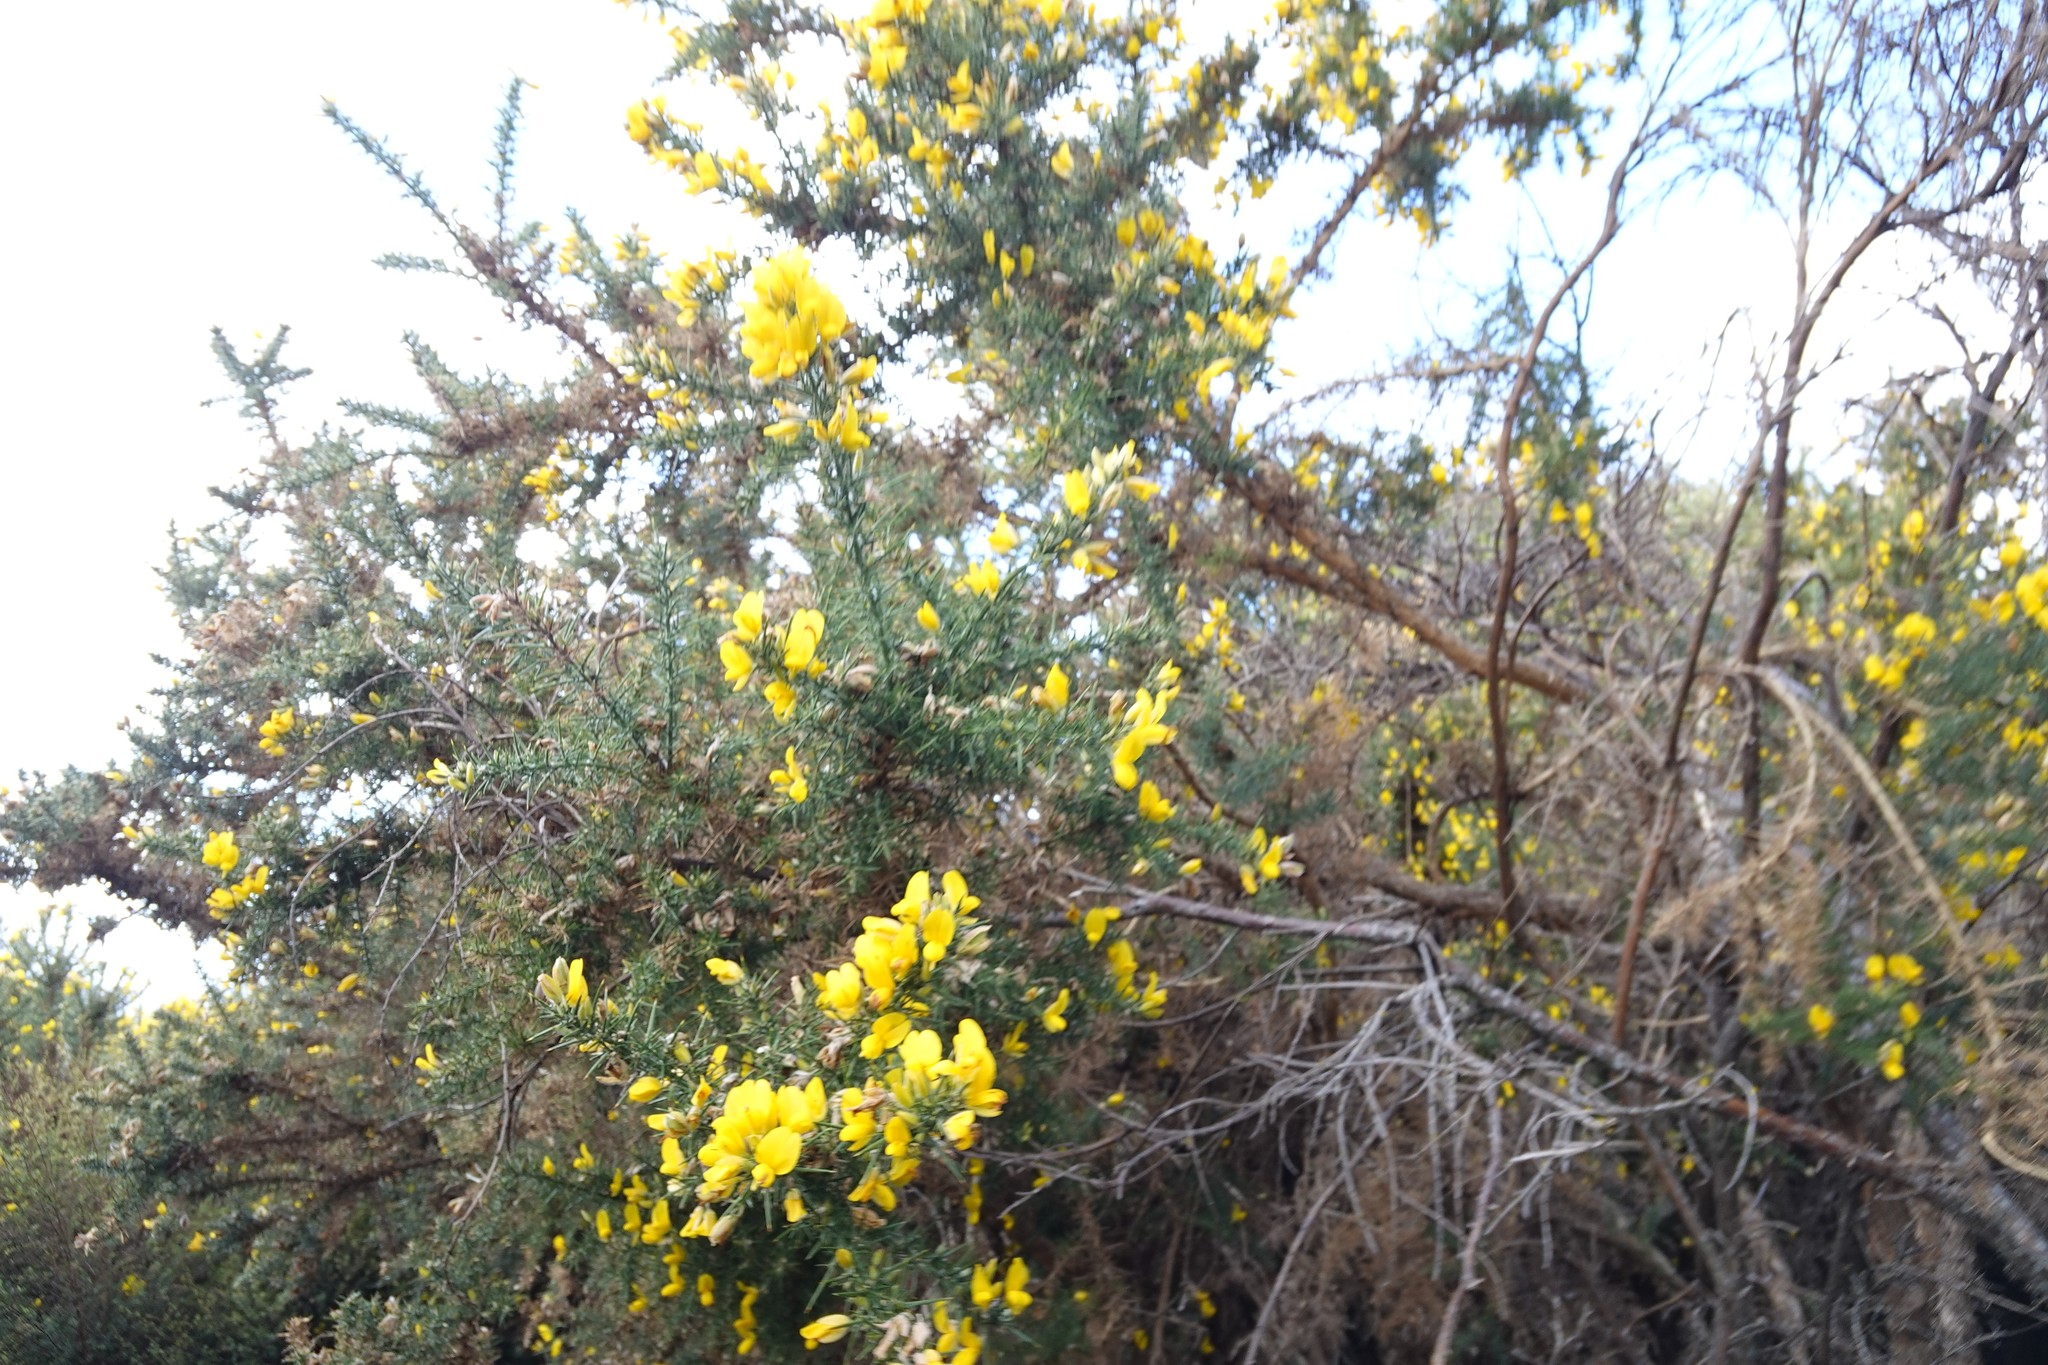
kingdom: Plantae
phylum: Tracheophyta
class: Magnoliopsida
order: Fabales
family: Fabaceae
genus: Ulex
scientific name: Ulex europaeus
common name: Common gorse
